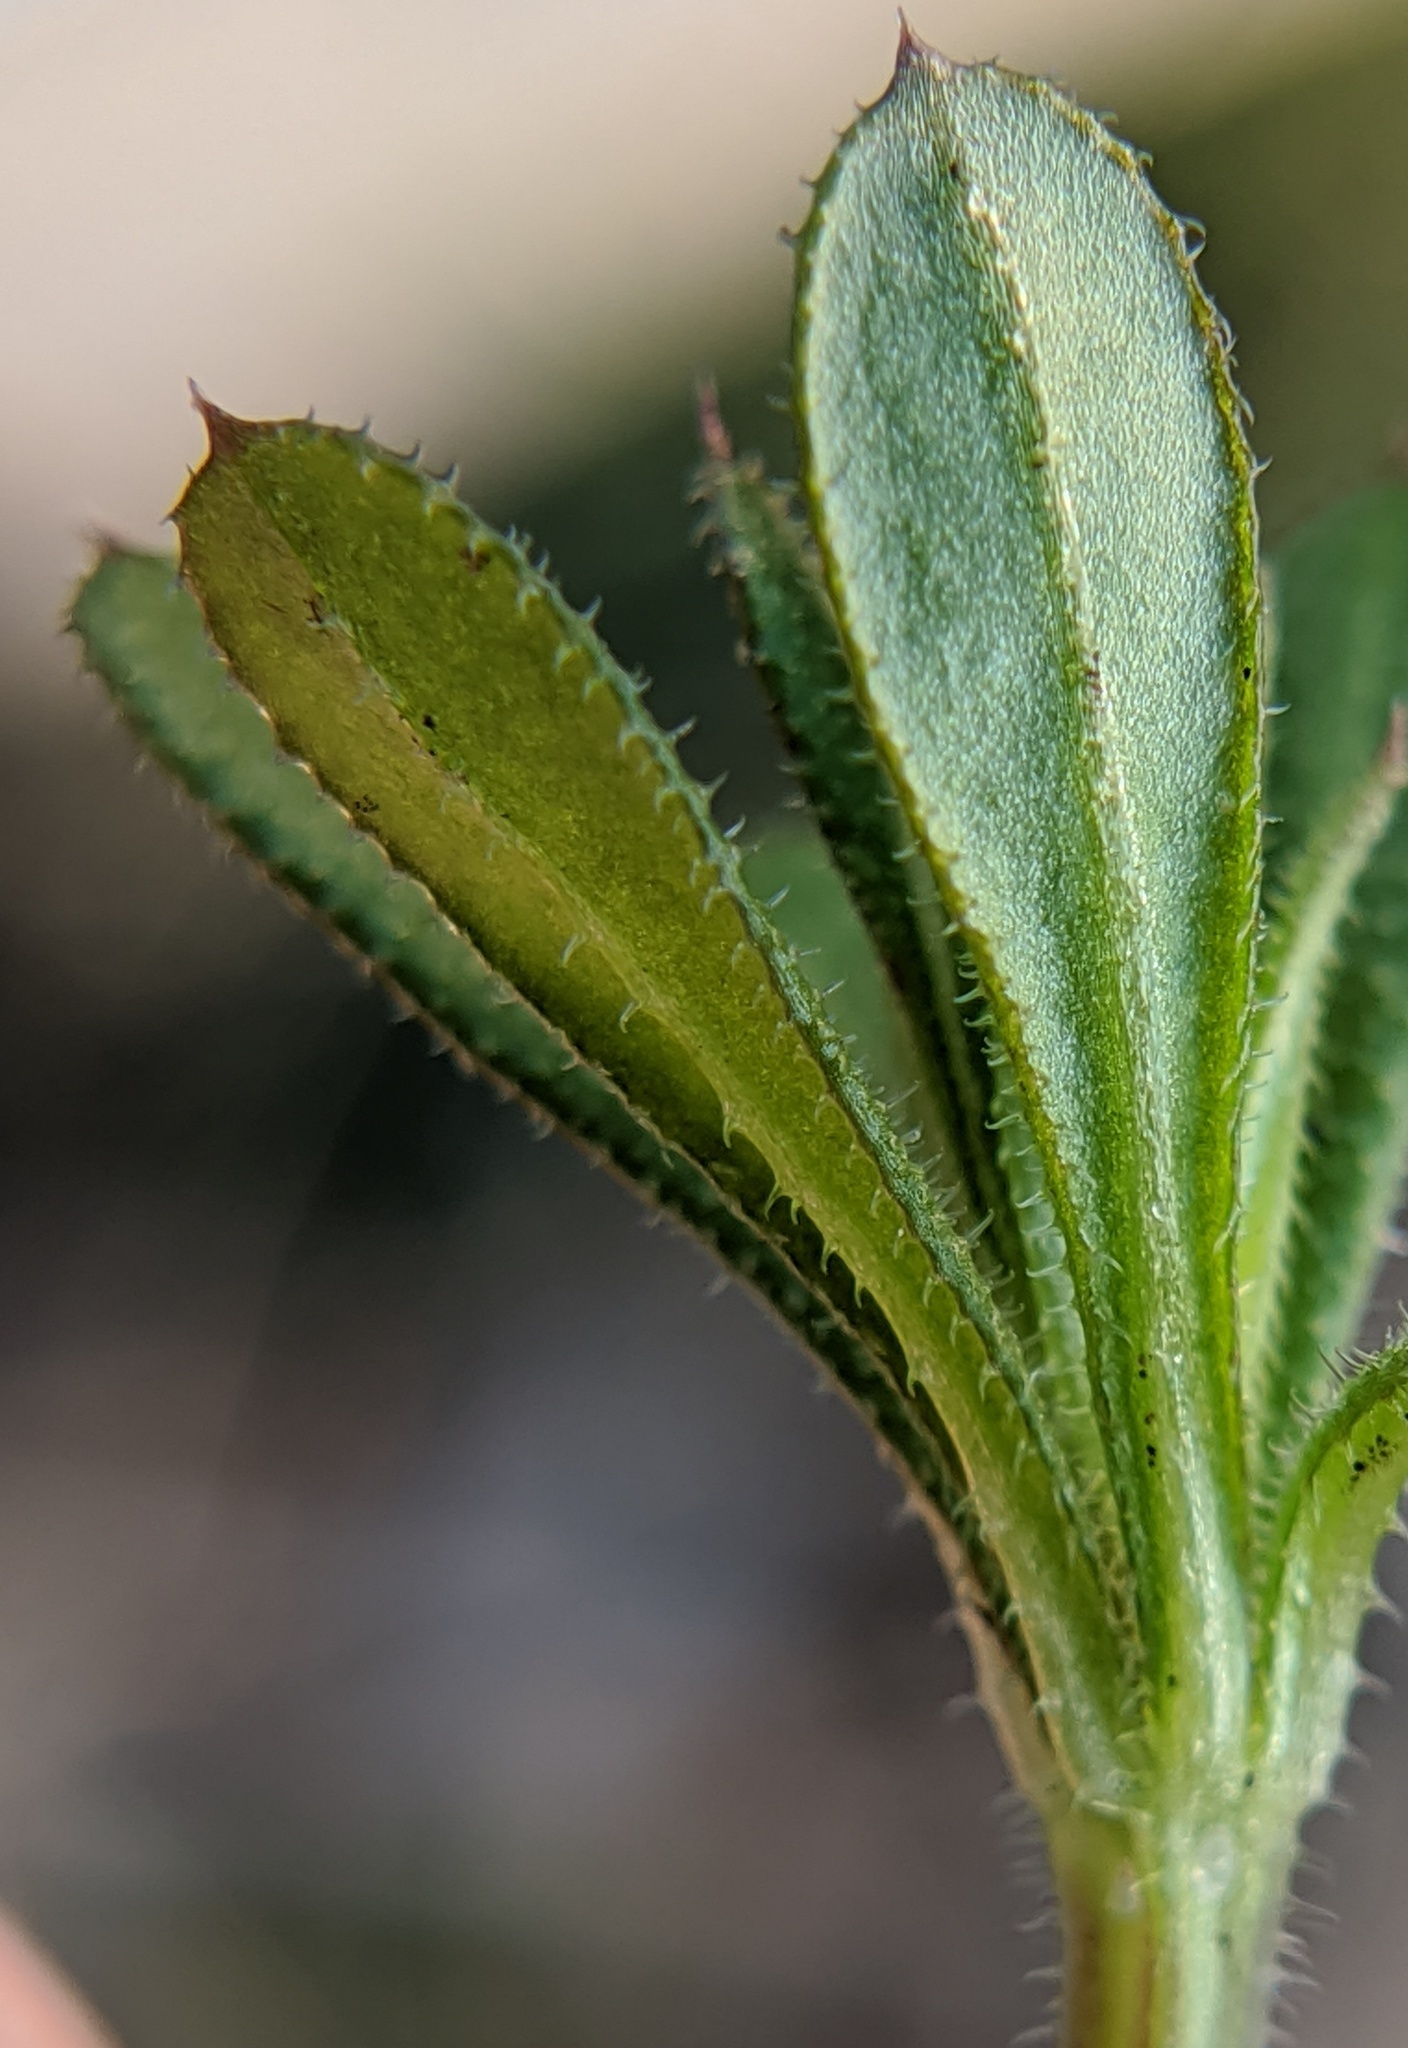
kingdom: Plantae
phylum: Tracheophyta
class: Magnoliopsida
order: Gentianales
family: Rubiaceae
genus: Galium
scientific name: Galium aparine
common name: Cleavers
